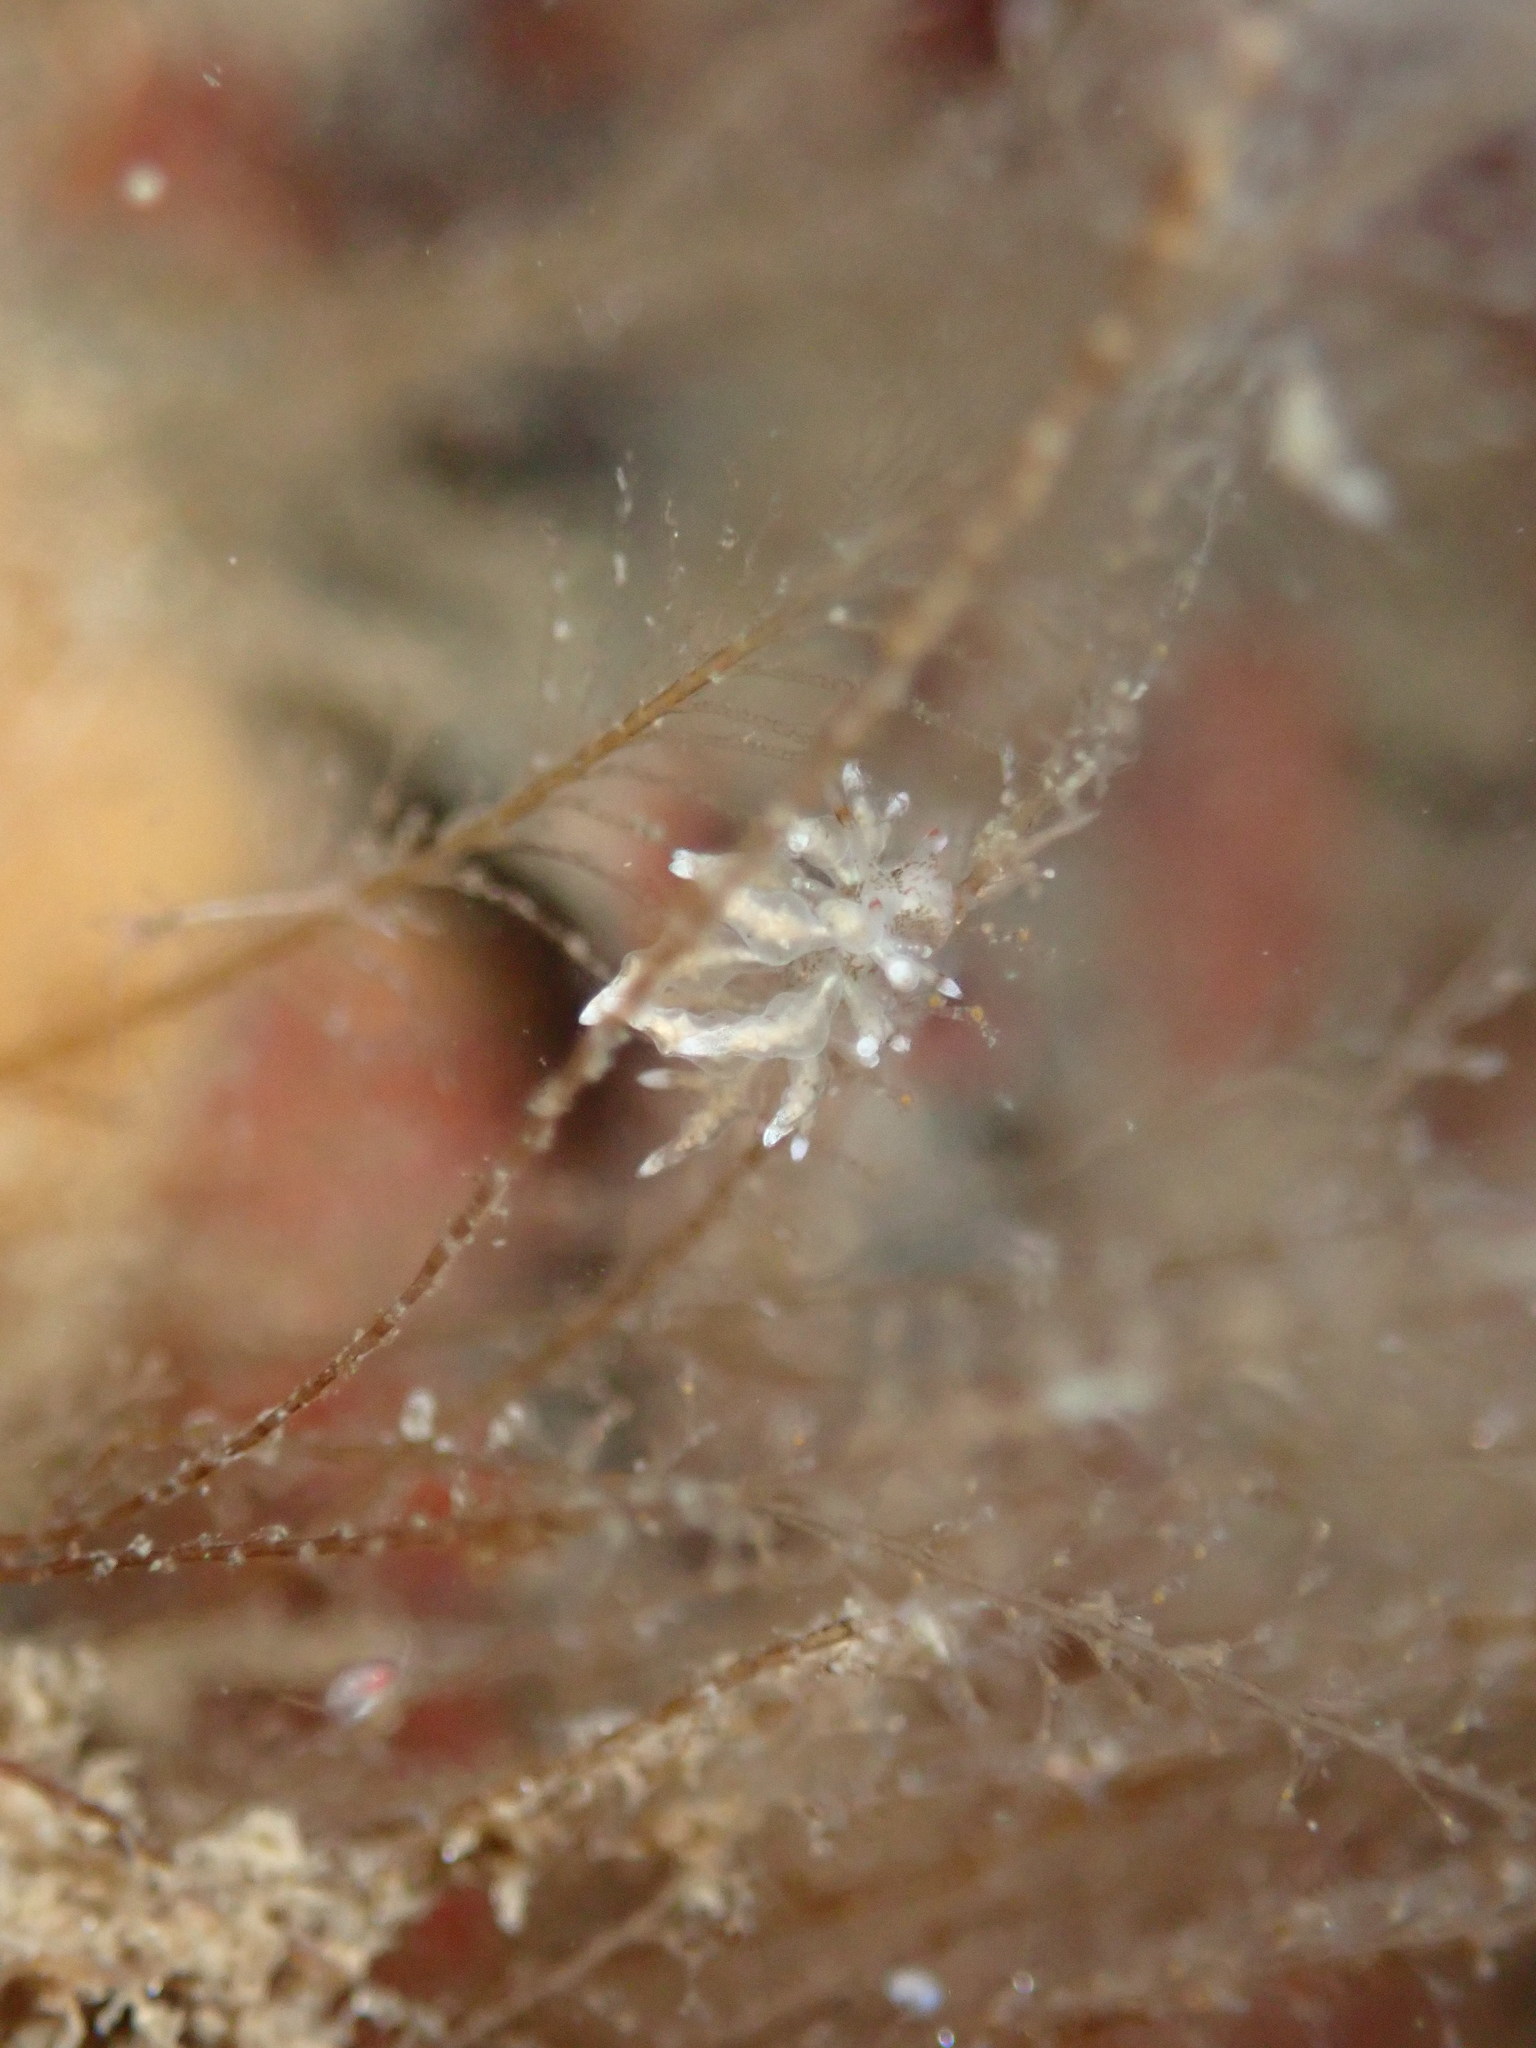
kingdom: Animalia
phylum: Mollusca
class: Gastropoda
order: Nudibranchia
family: Eubranchidae
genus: Eubranchus
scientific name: Eubranchus rustyus
